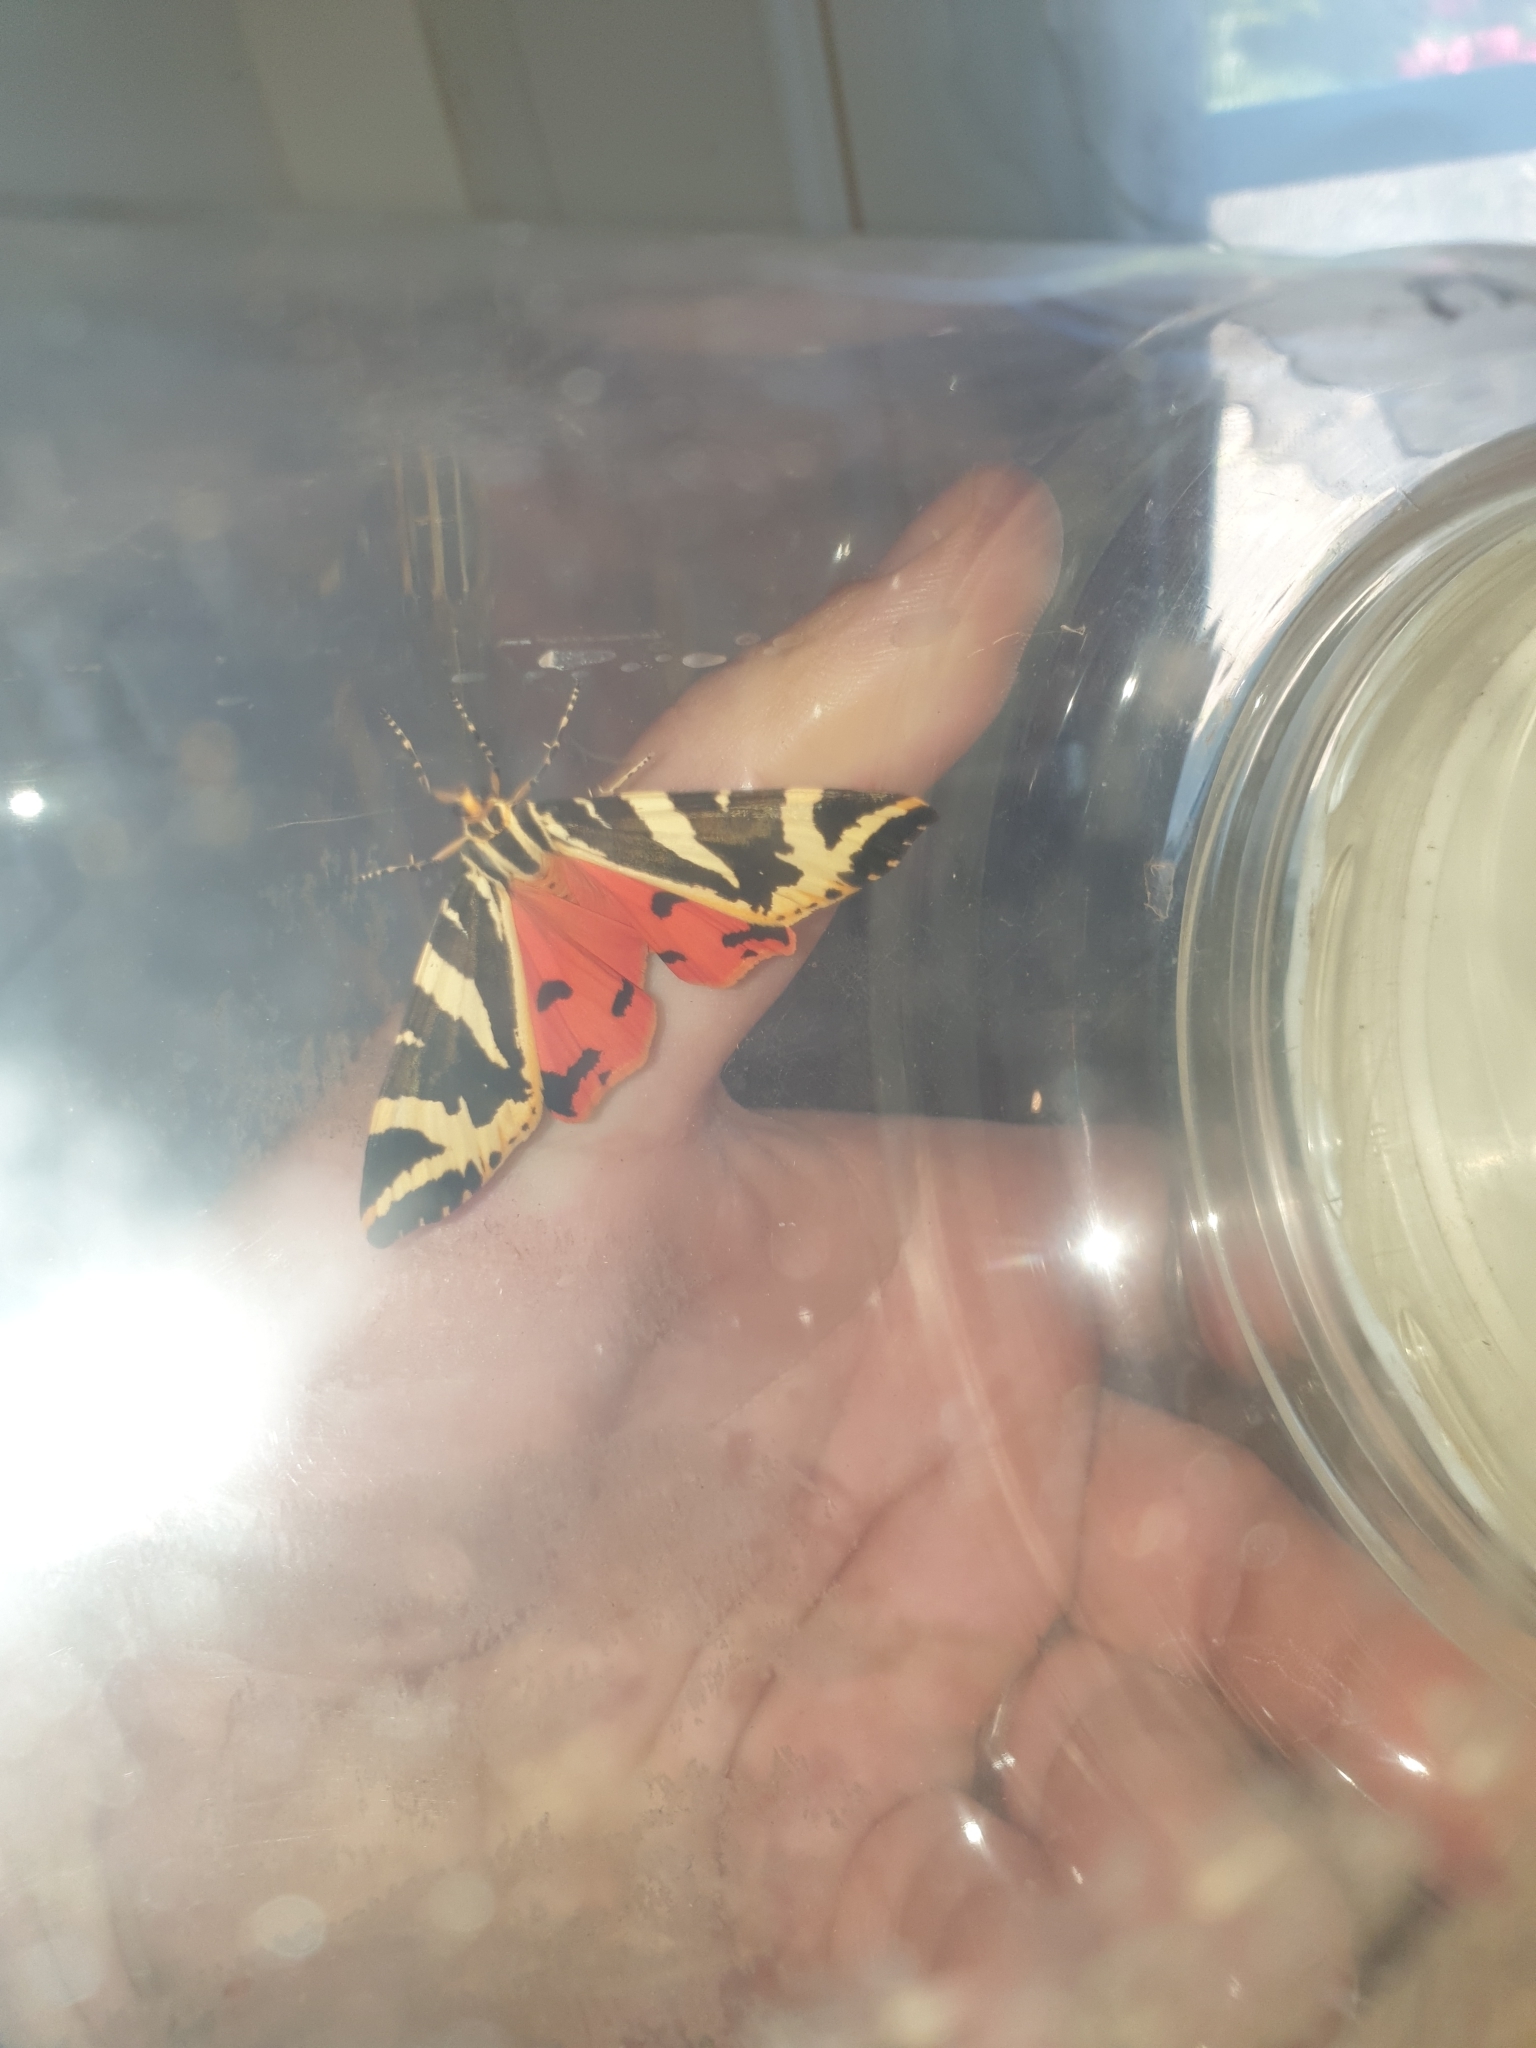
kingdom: Animalia
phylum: Arthropoda
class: Insecta
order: Lepidoptera
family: Erebidae
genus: Euplagia
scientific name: Euplagia quadripunctaria
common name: Jersey tiger
